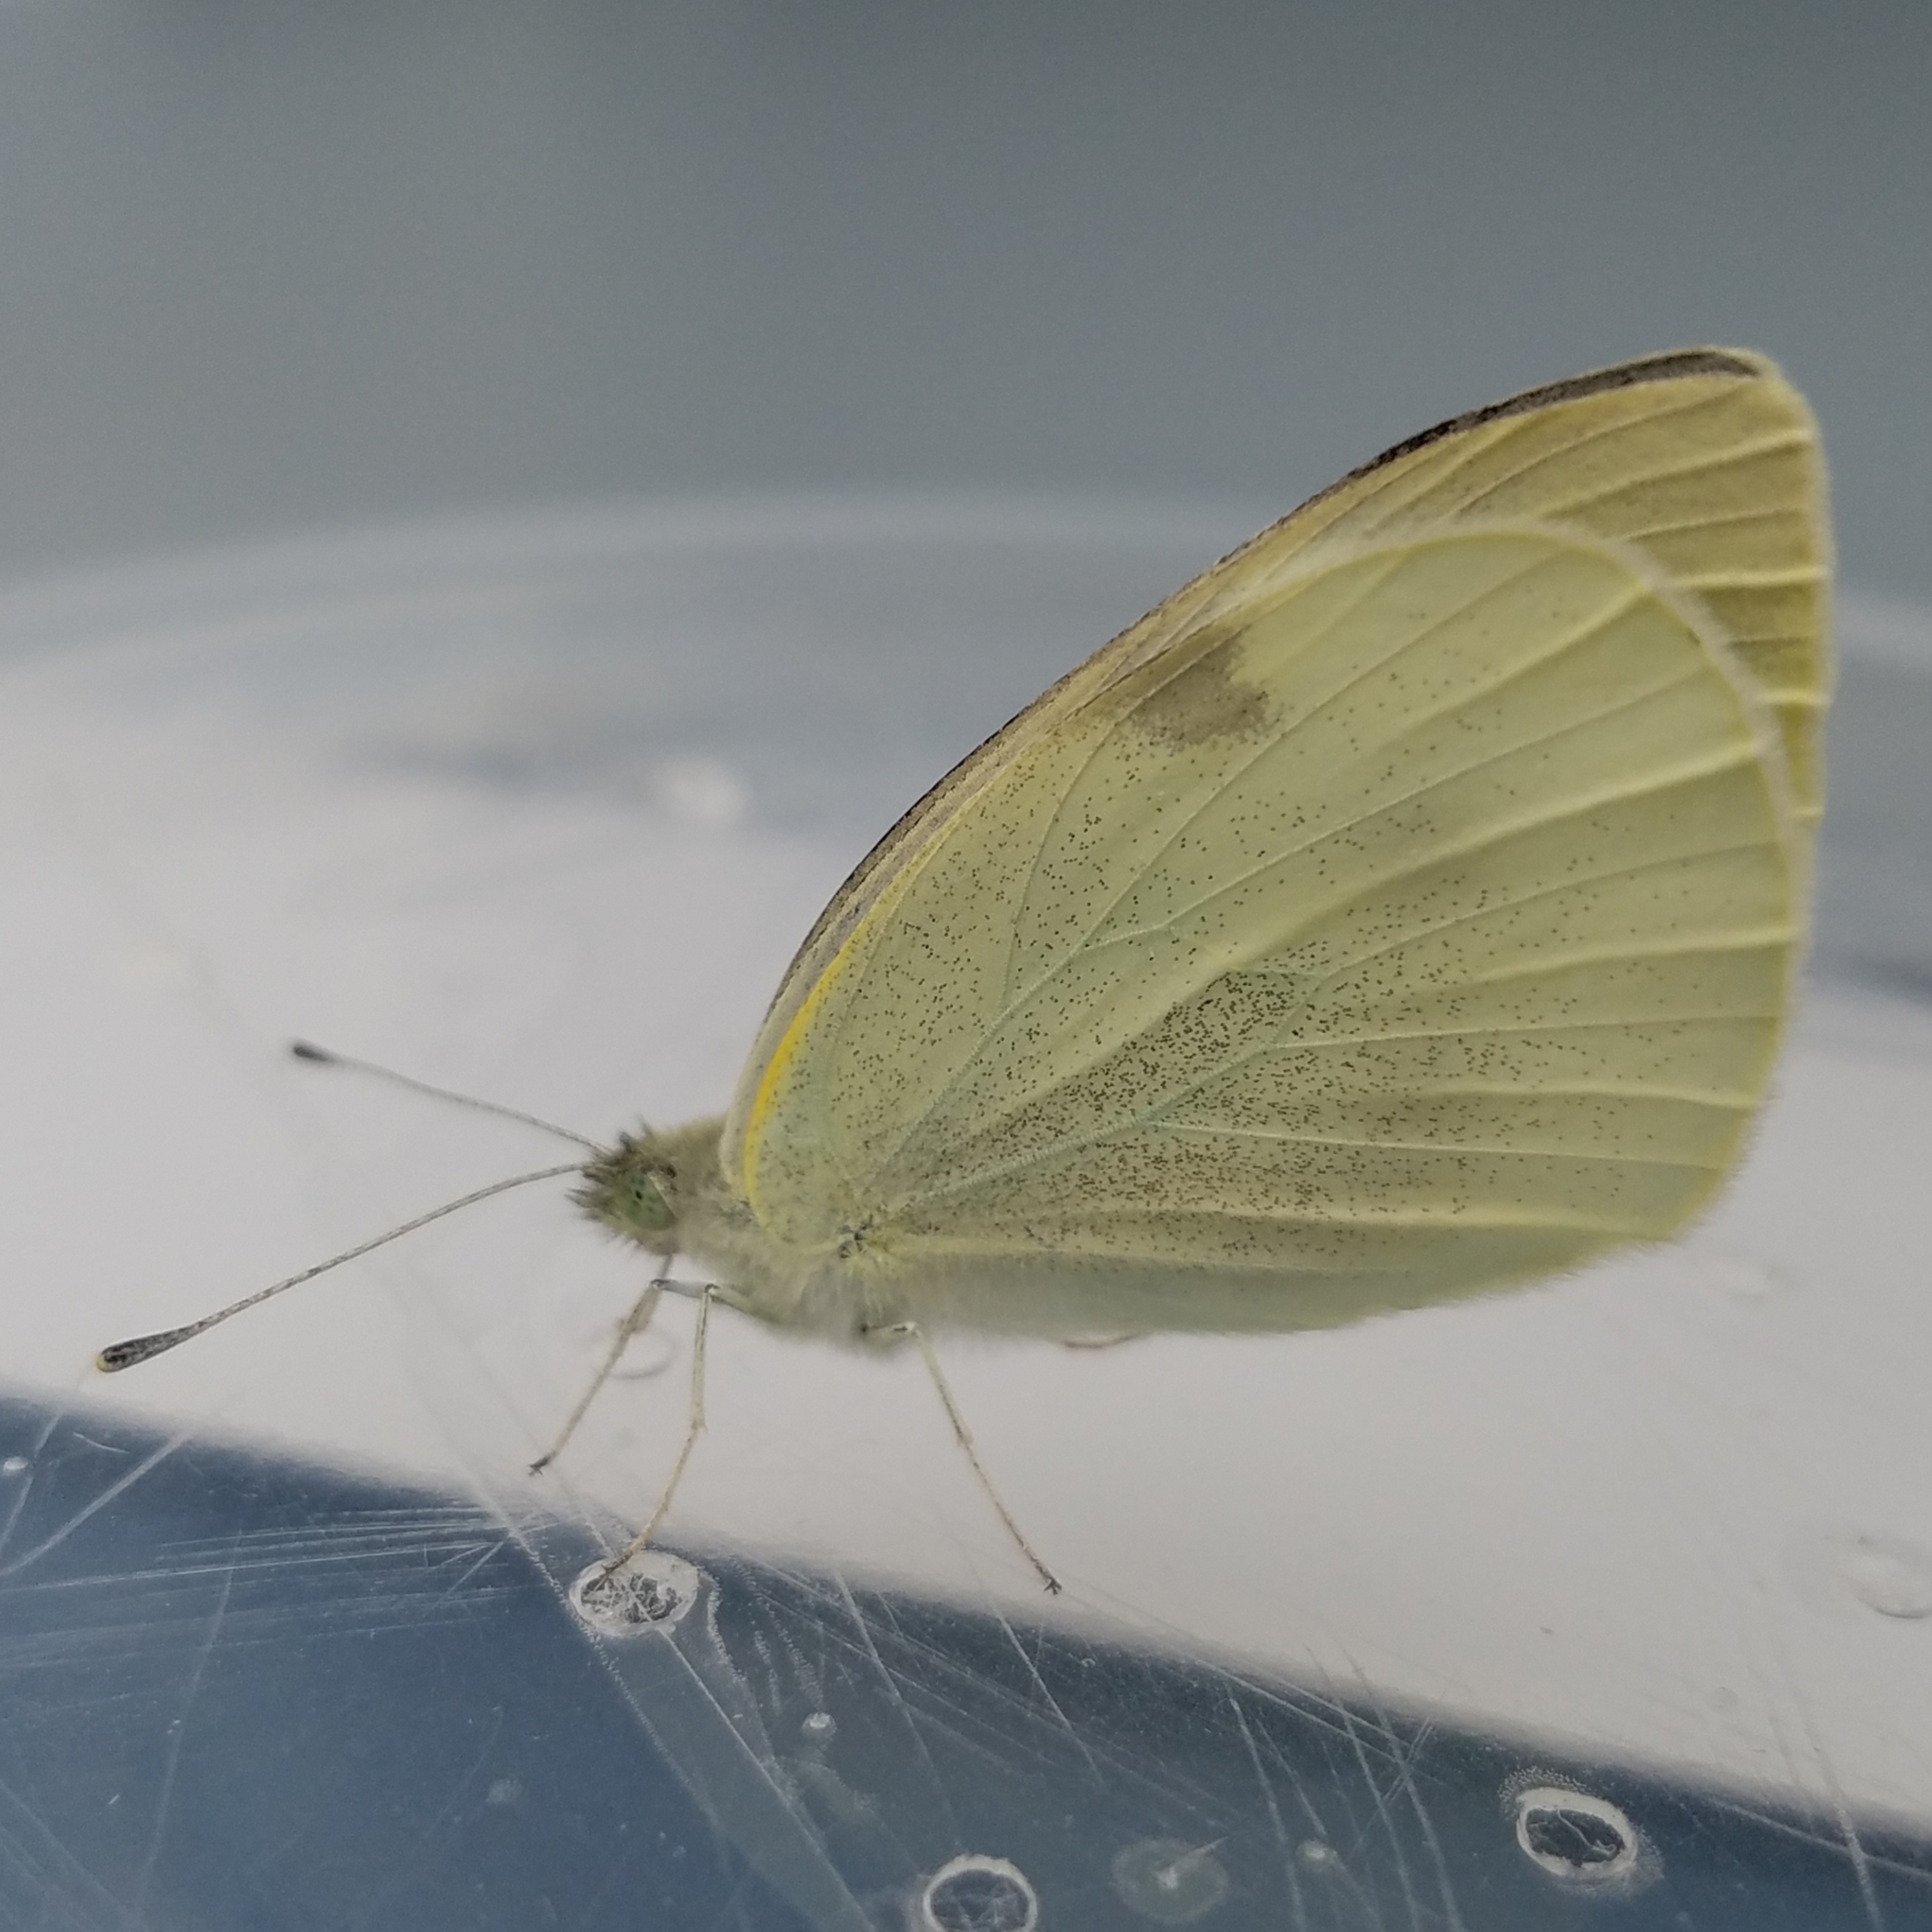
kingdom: Animalia
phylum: Arthropoda
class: Insecta
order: Lepidoptera
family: Pieridae
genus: Pieris
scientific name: Pieris rapae
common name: Small white
